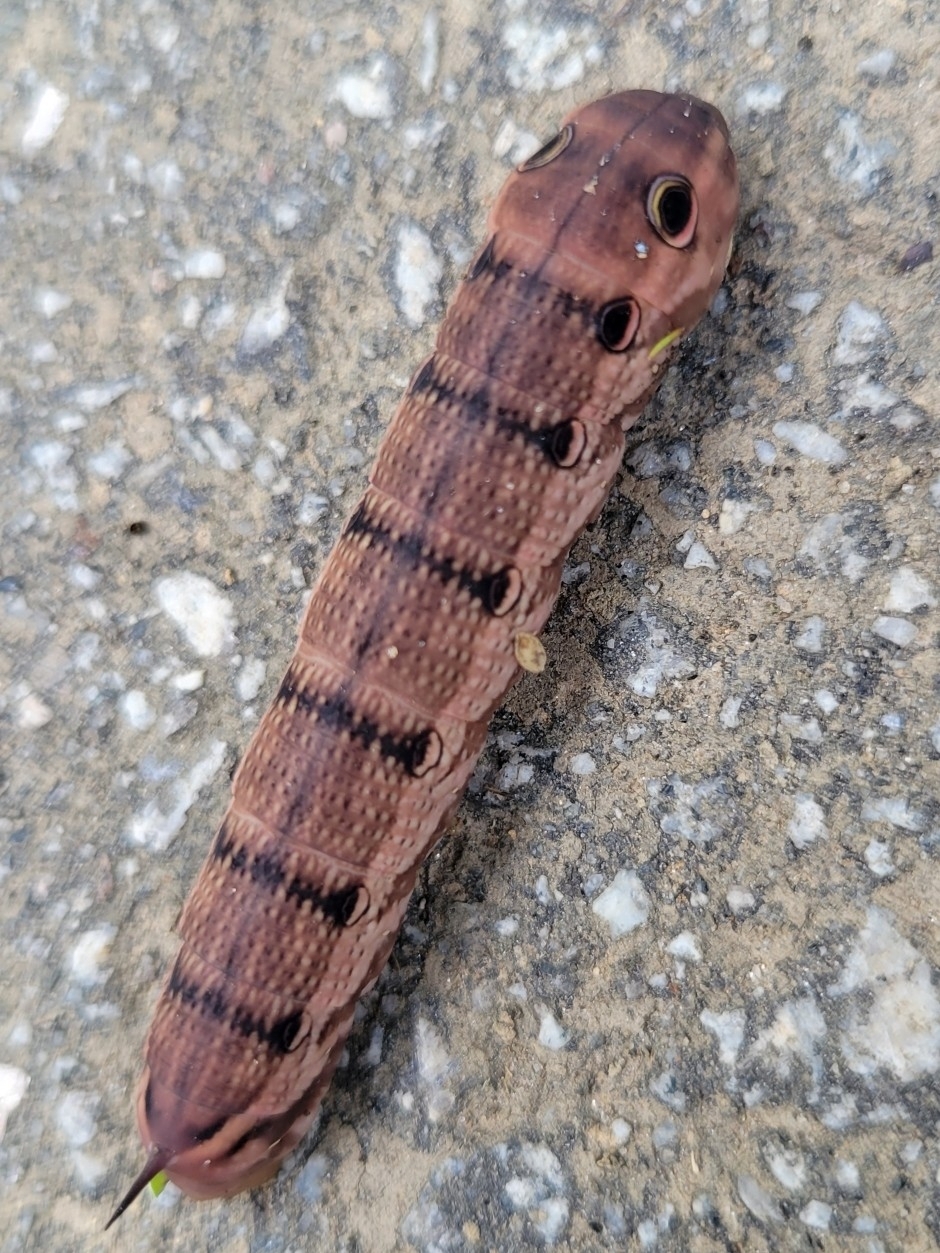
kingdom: Animalia
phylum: Arthropoda
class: Insecta
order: Lepidoptera
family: Sphingidae
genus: Xylophanes
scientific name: Xylophanes tersa
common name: Tersa sphinx
